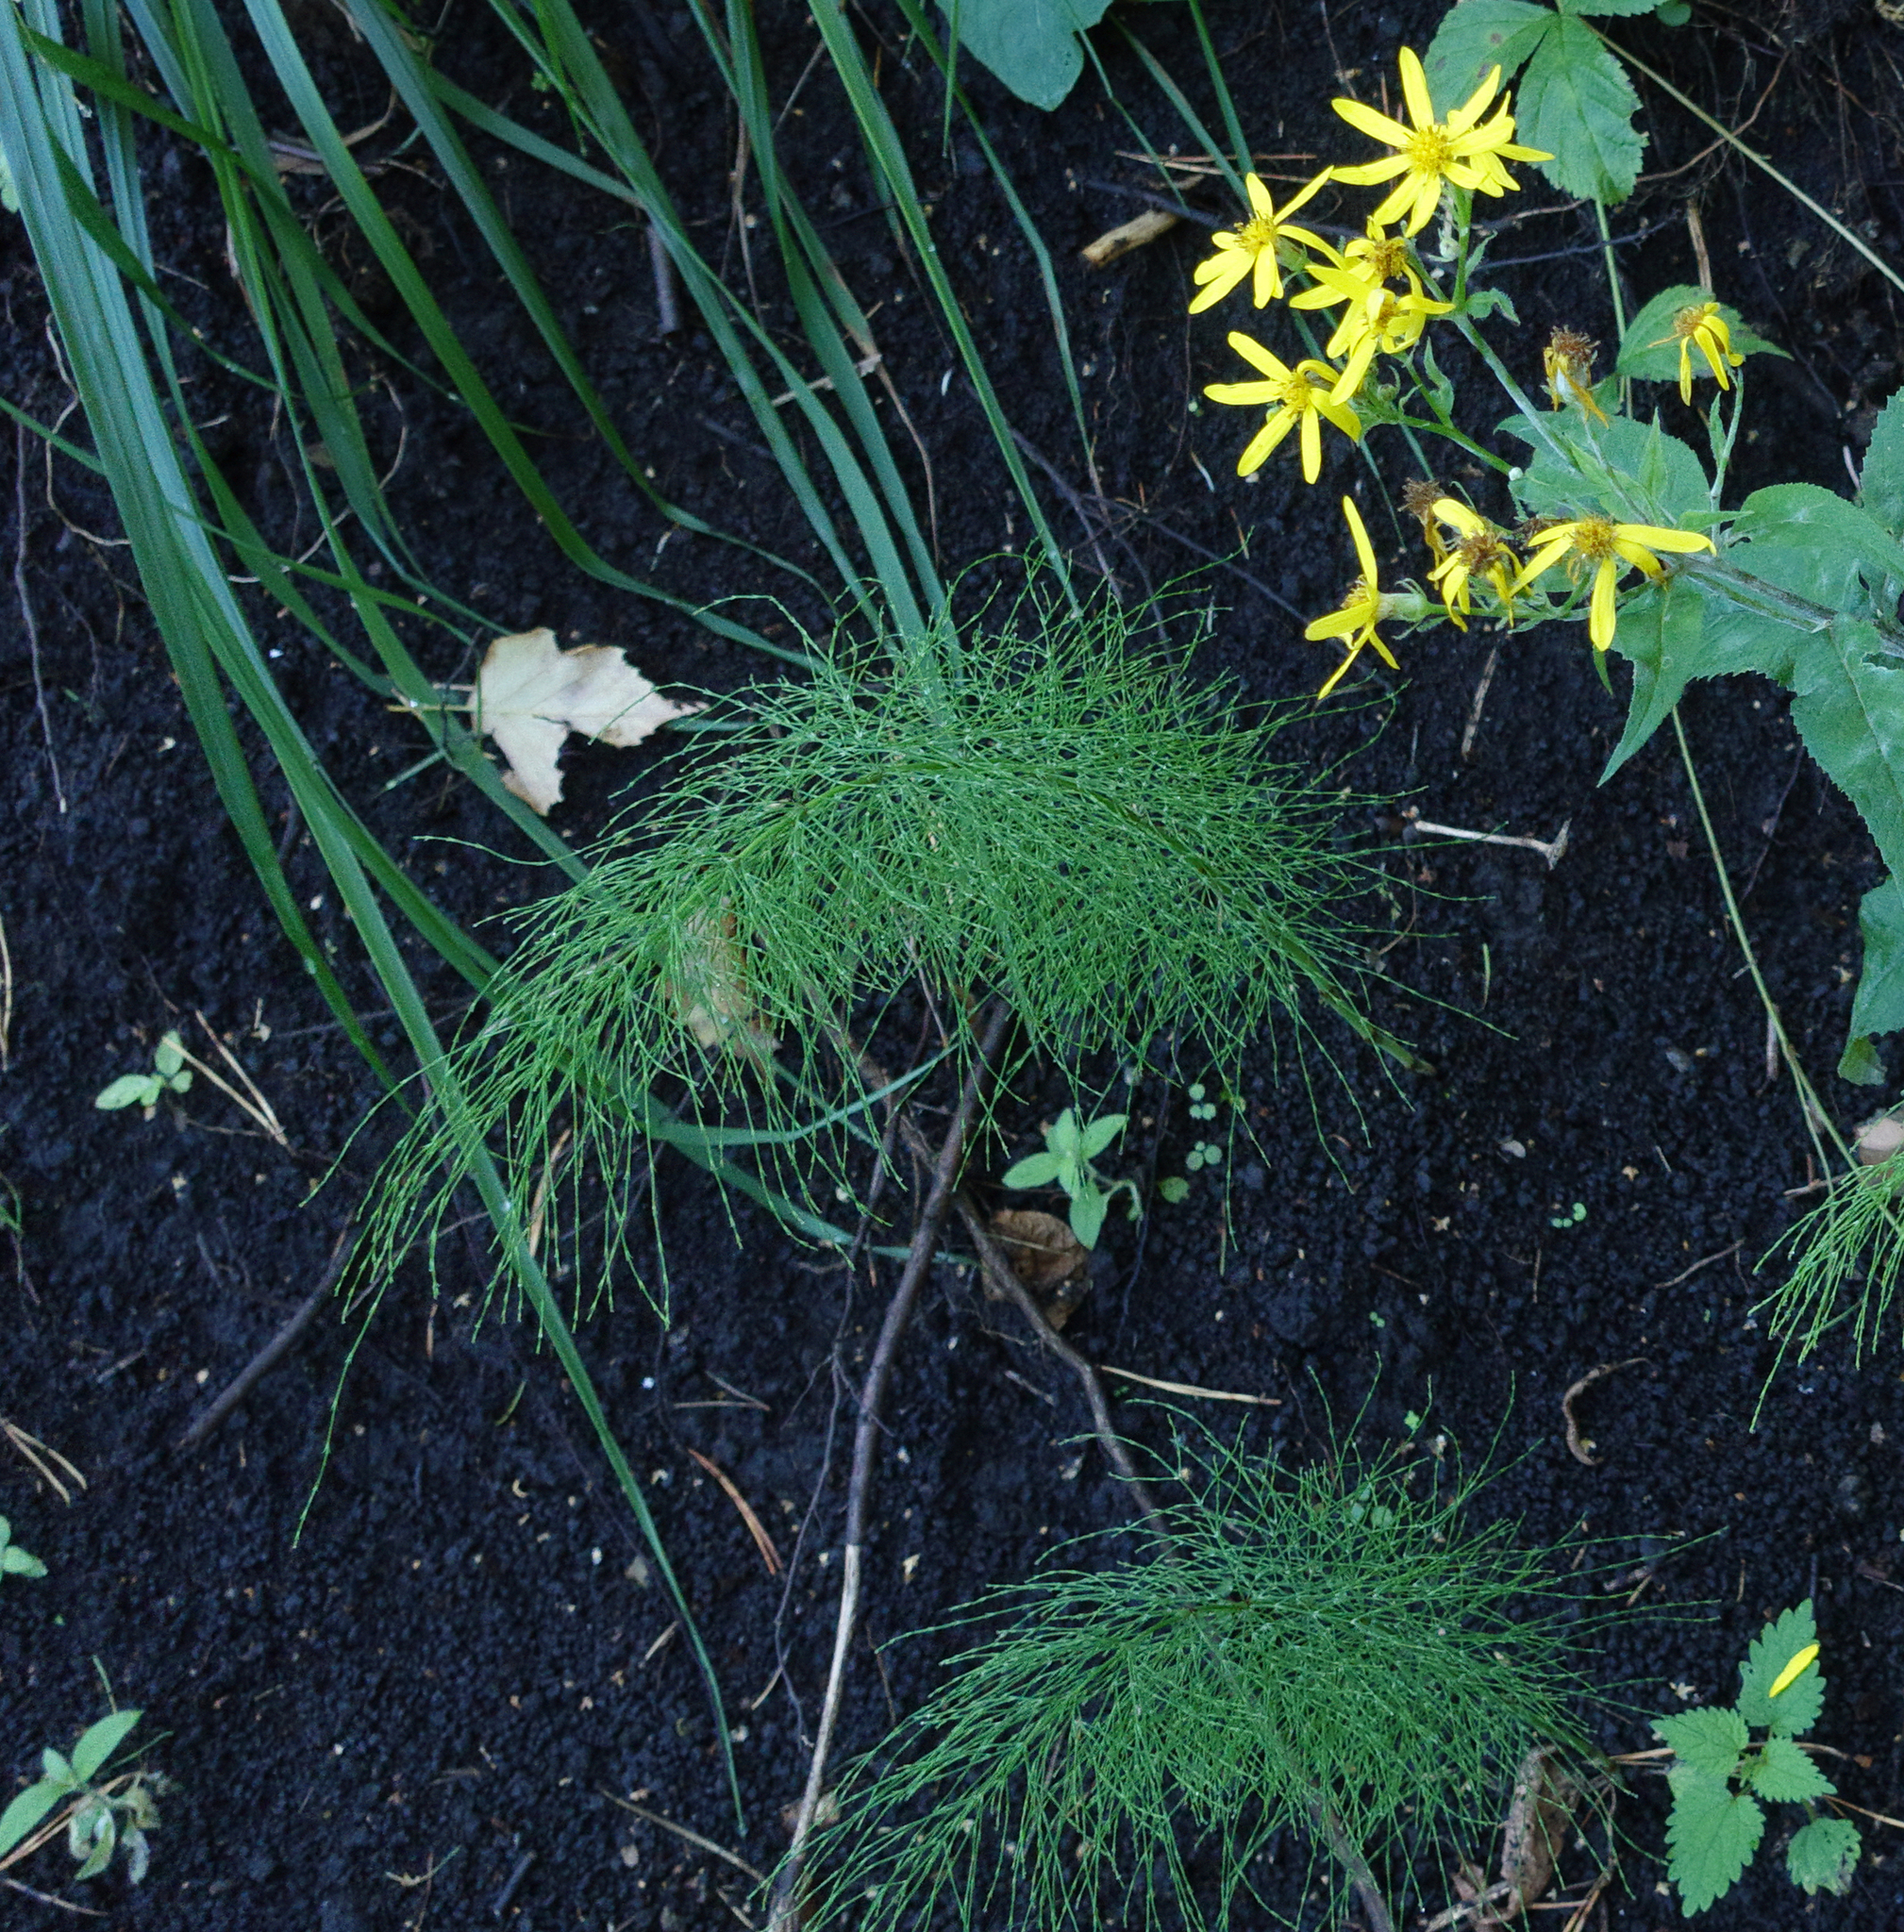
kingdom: Plantae
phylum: Tracheophyta
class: Polypodiopsida
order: Equisetales
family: Equisetaceae
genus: Equisetum
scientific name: Equisetum sylvaticum
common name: Wood horsetail
